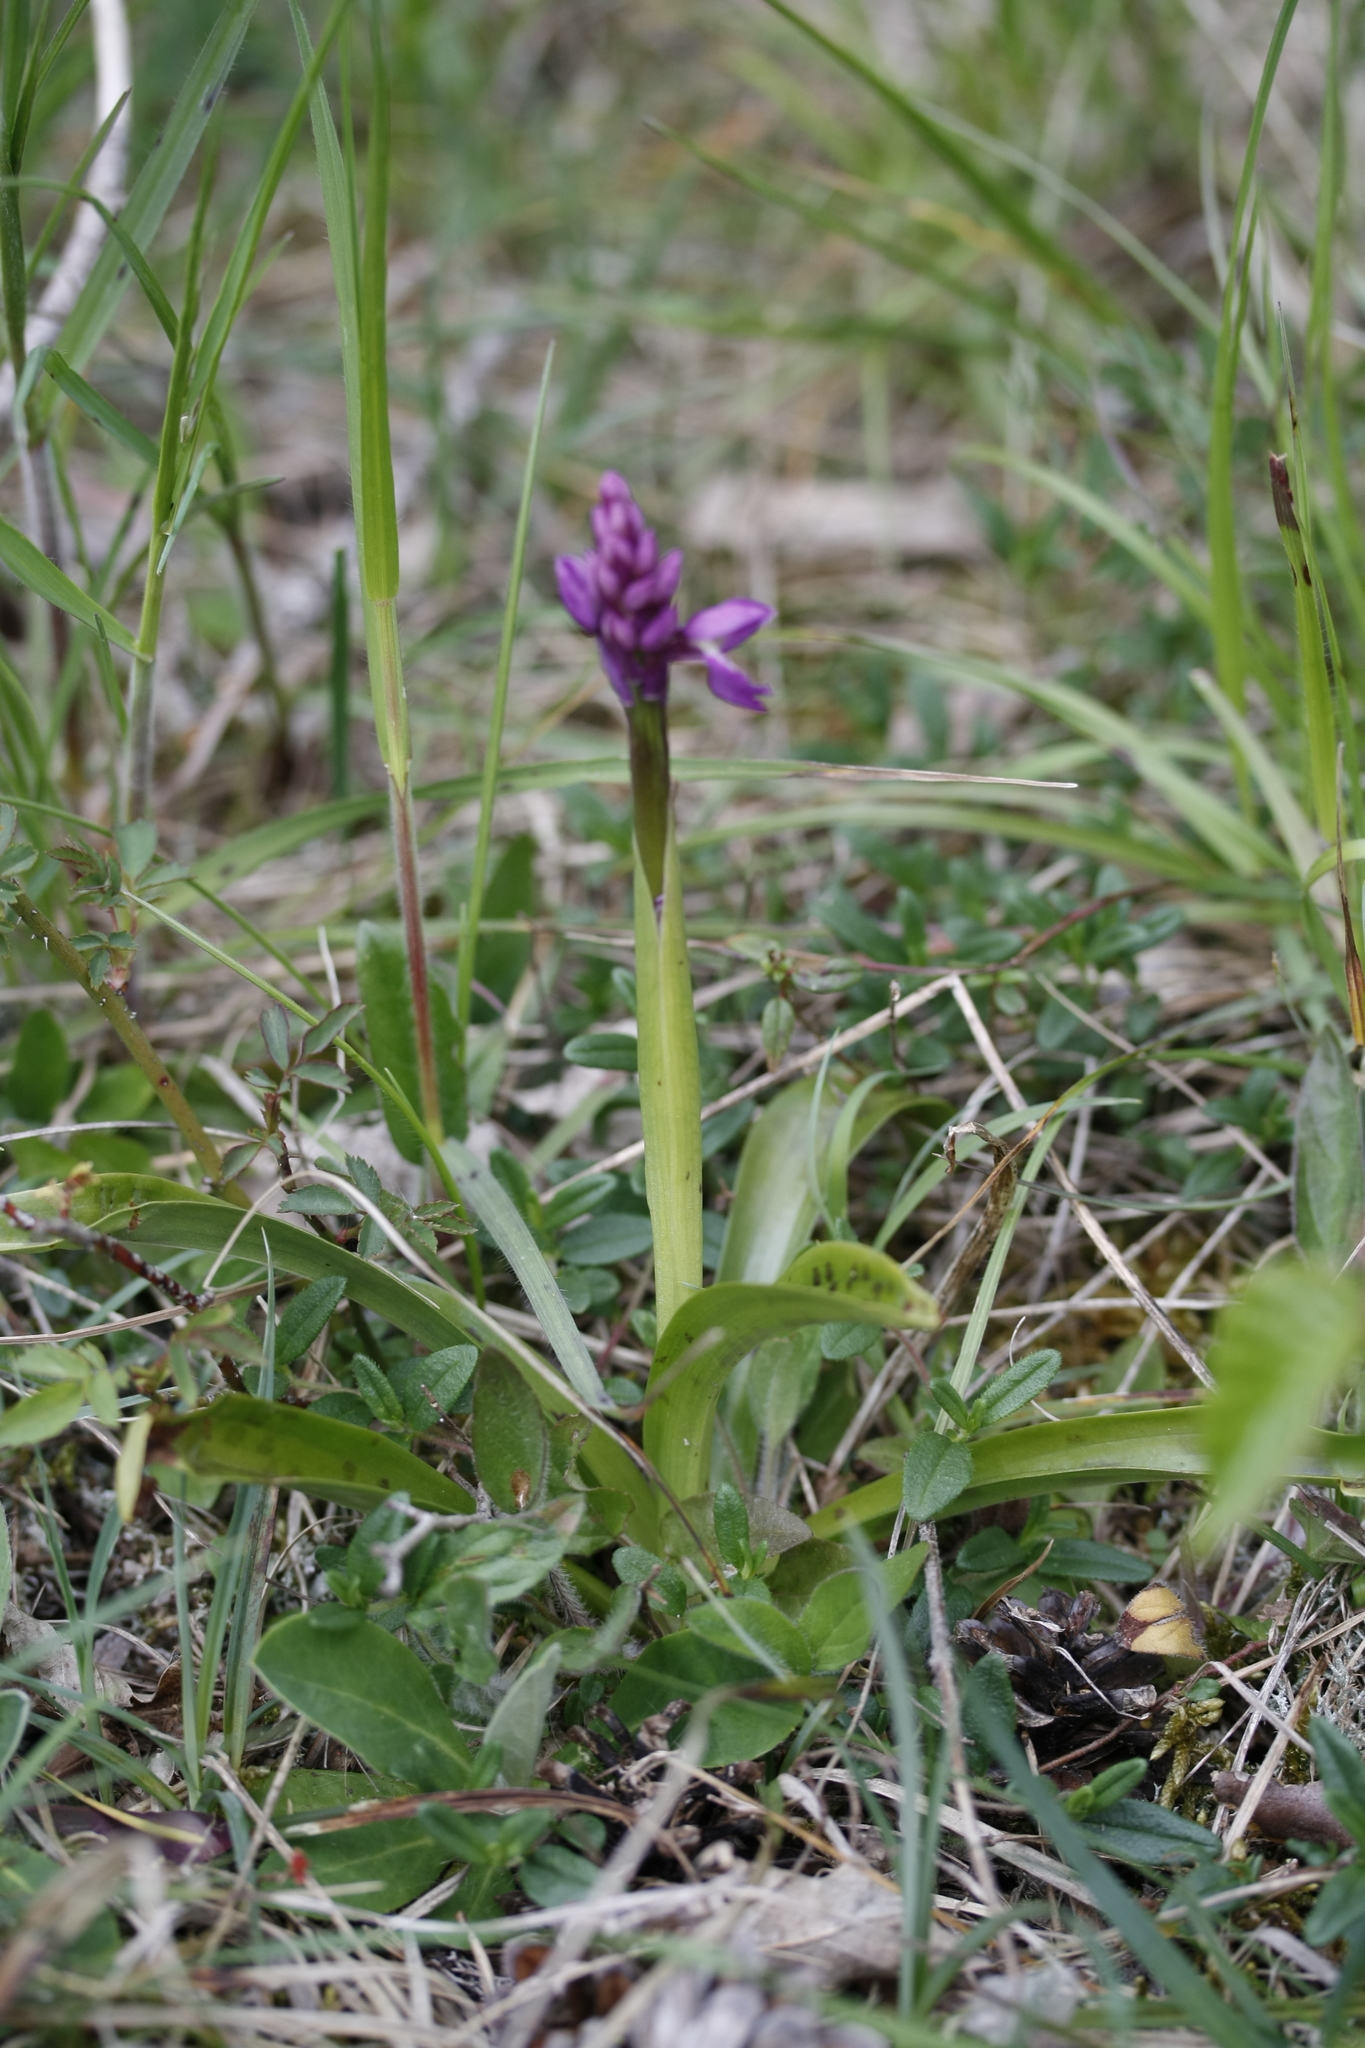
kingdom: Plantae
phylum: Tracheophyta
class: Liliopsida
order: Asparagales
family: Orchidaceae
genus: Orchis
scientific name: Orchis mascula
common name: Early-purple orchid
